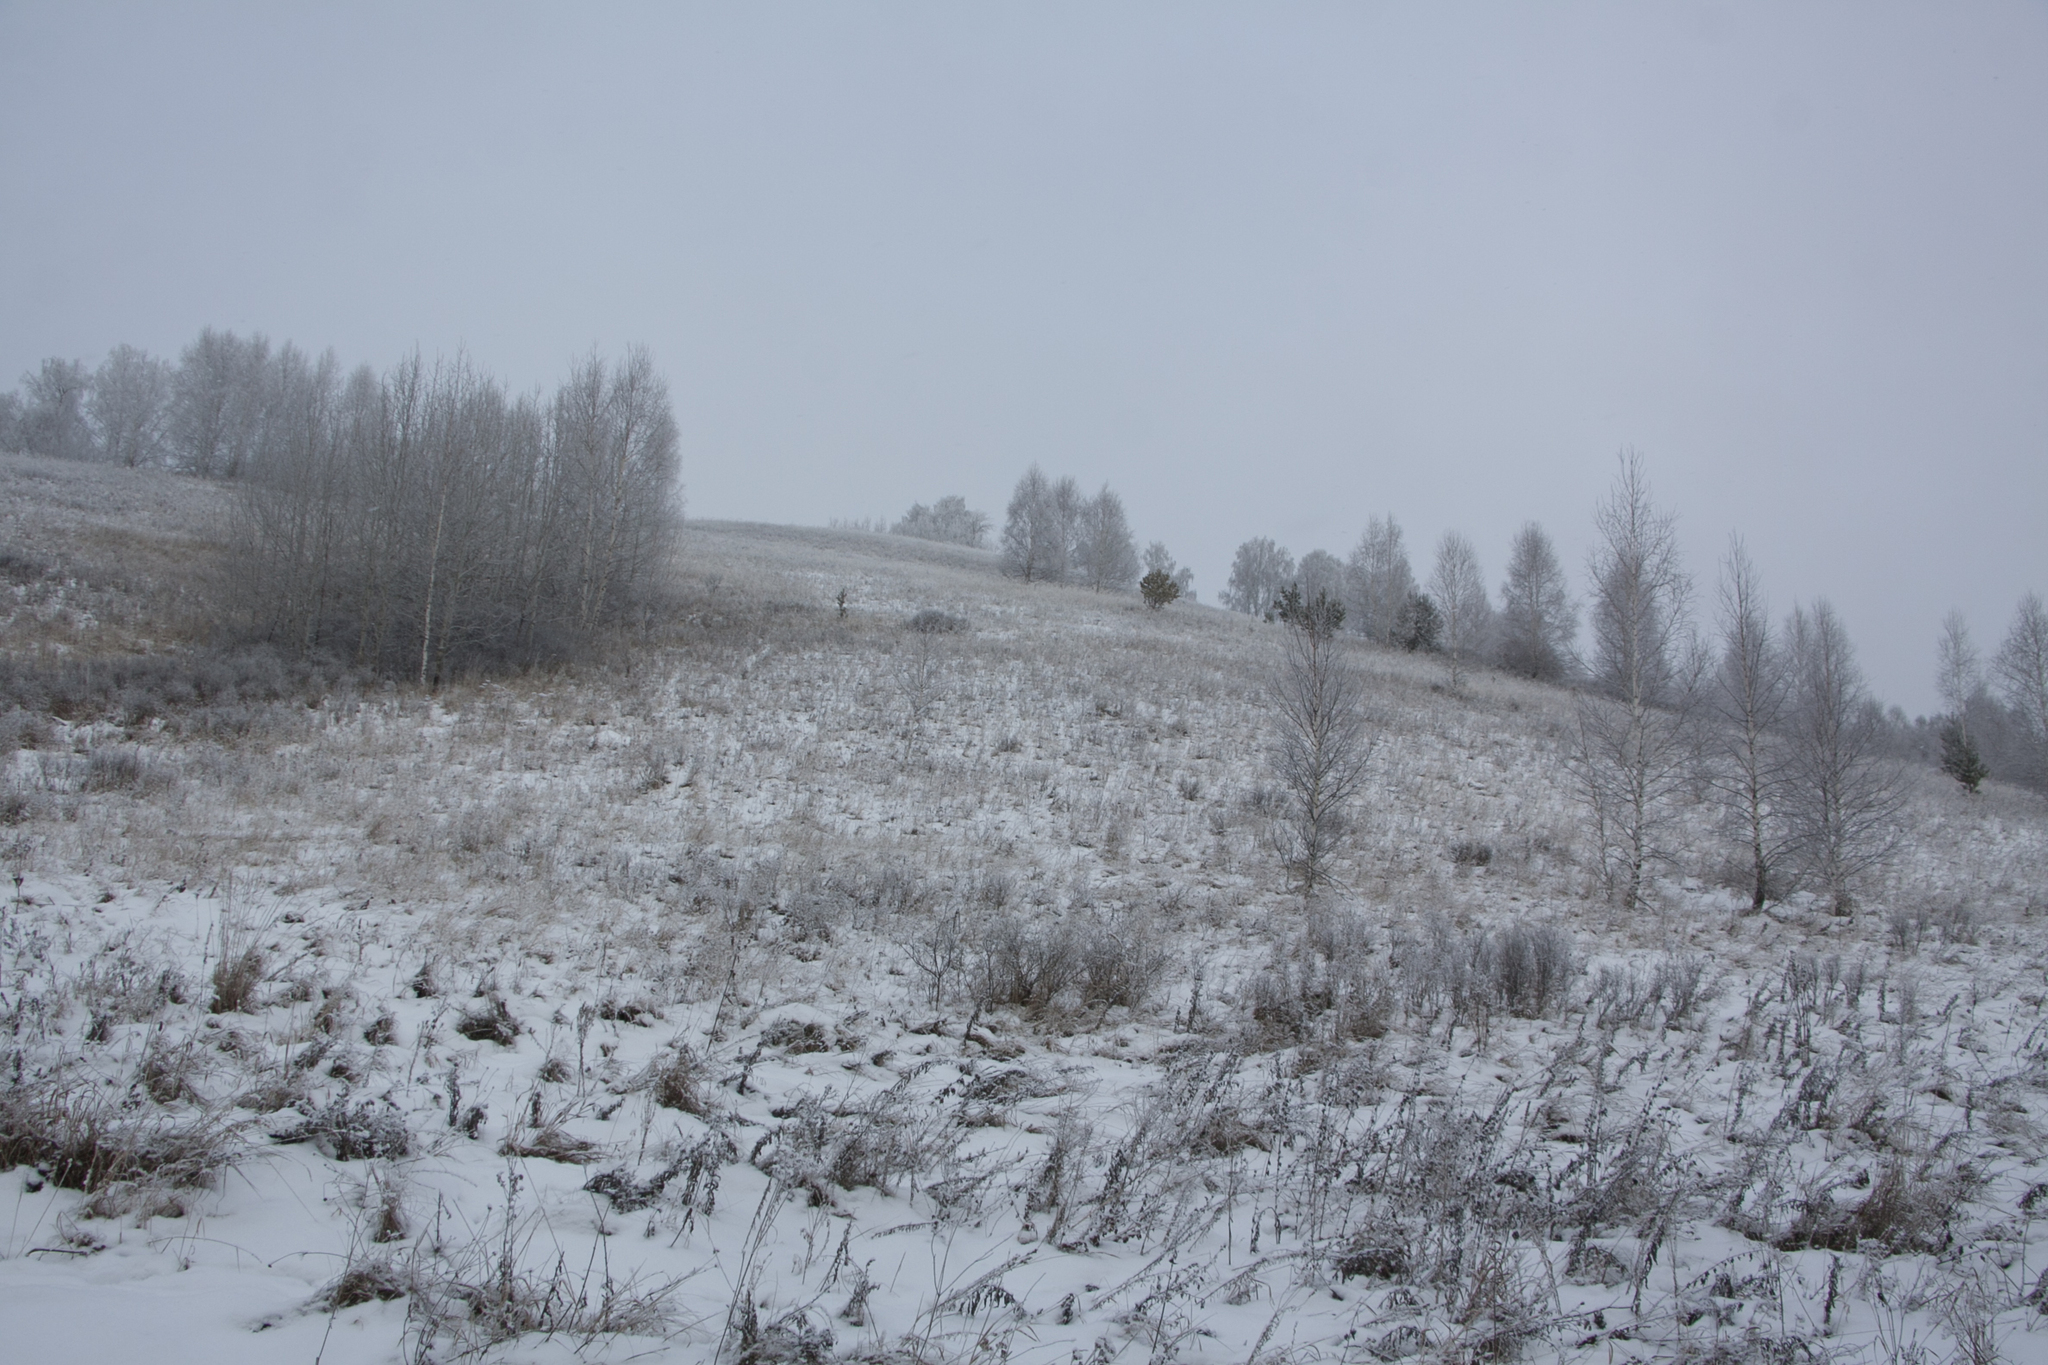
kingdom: Plantae
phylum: Tracheophyta
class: Magnoliopsida
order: Fagales
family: Betulaceae
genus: Betula
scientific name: Betula pendula
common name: Silver birch
